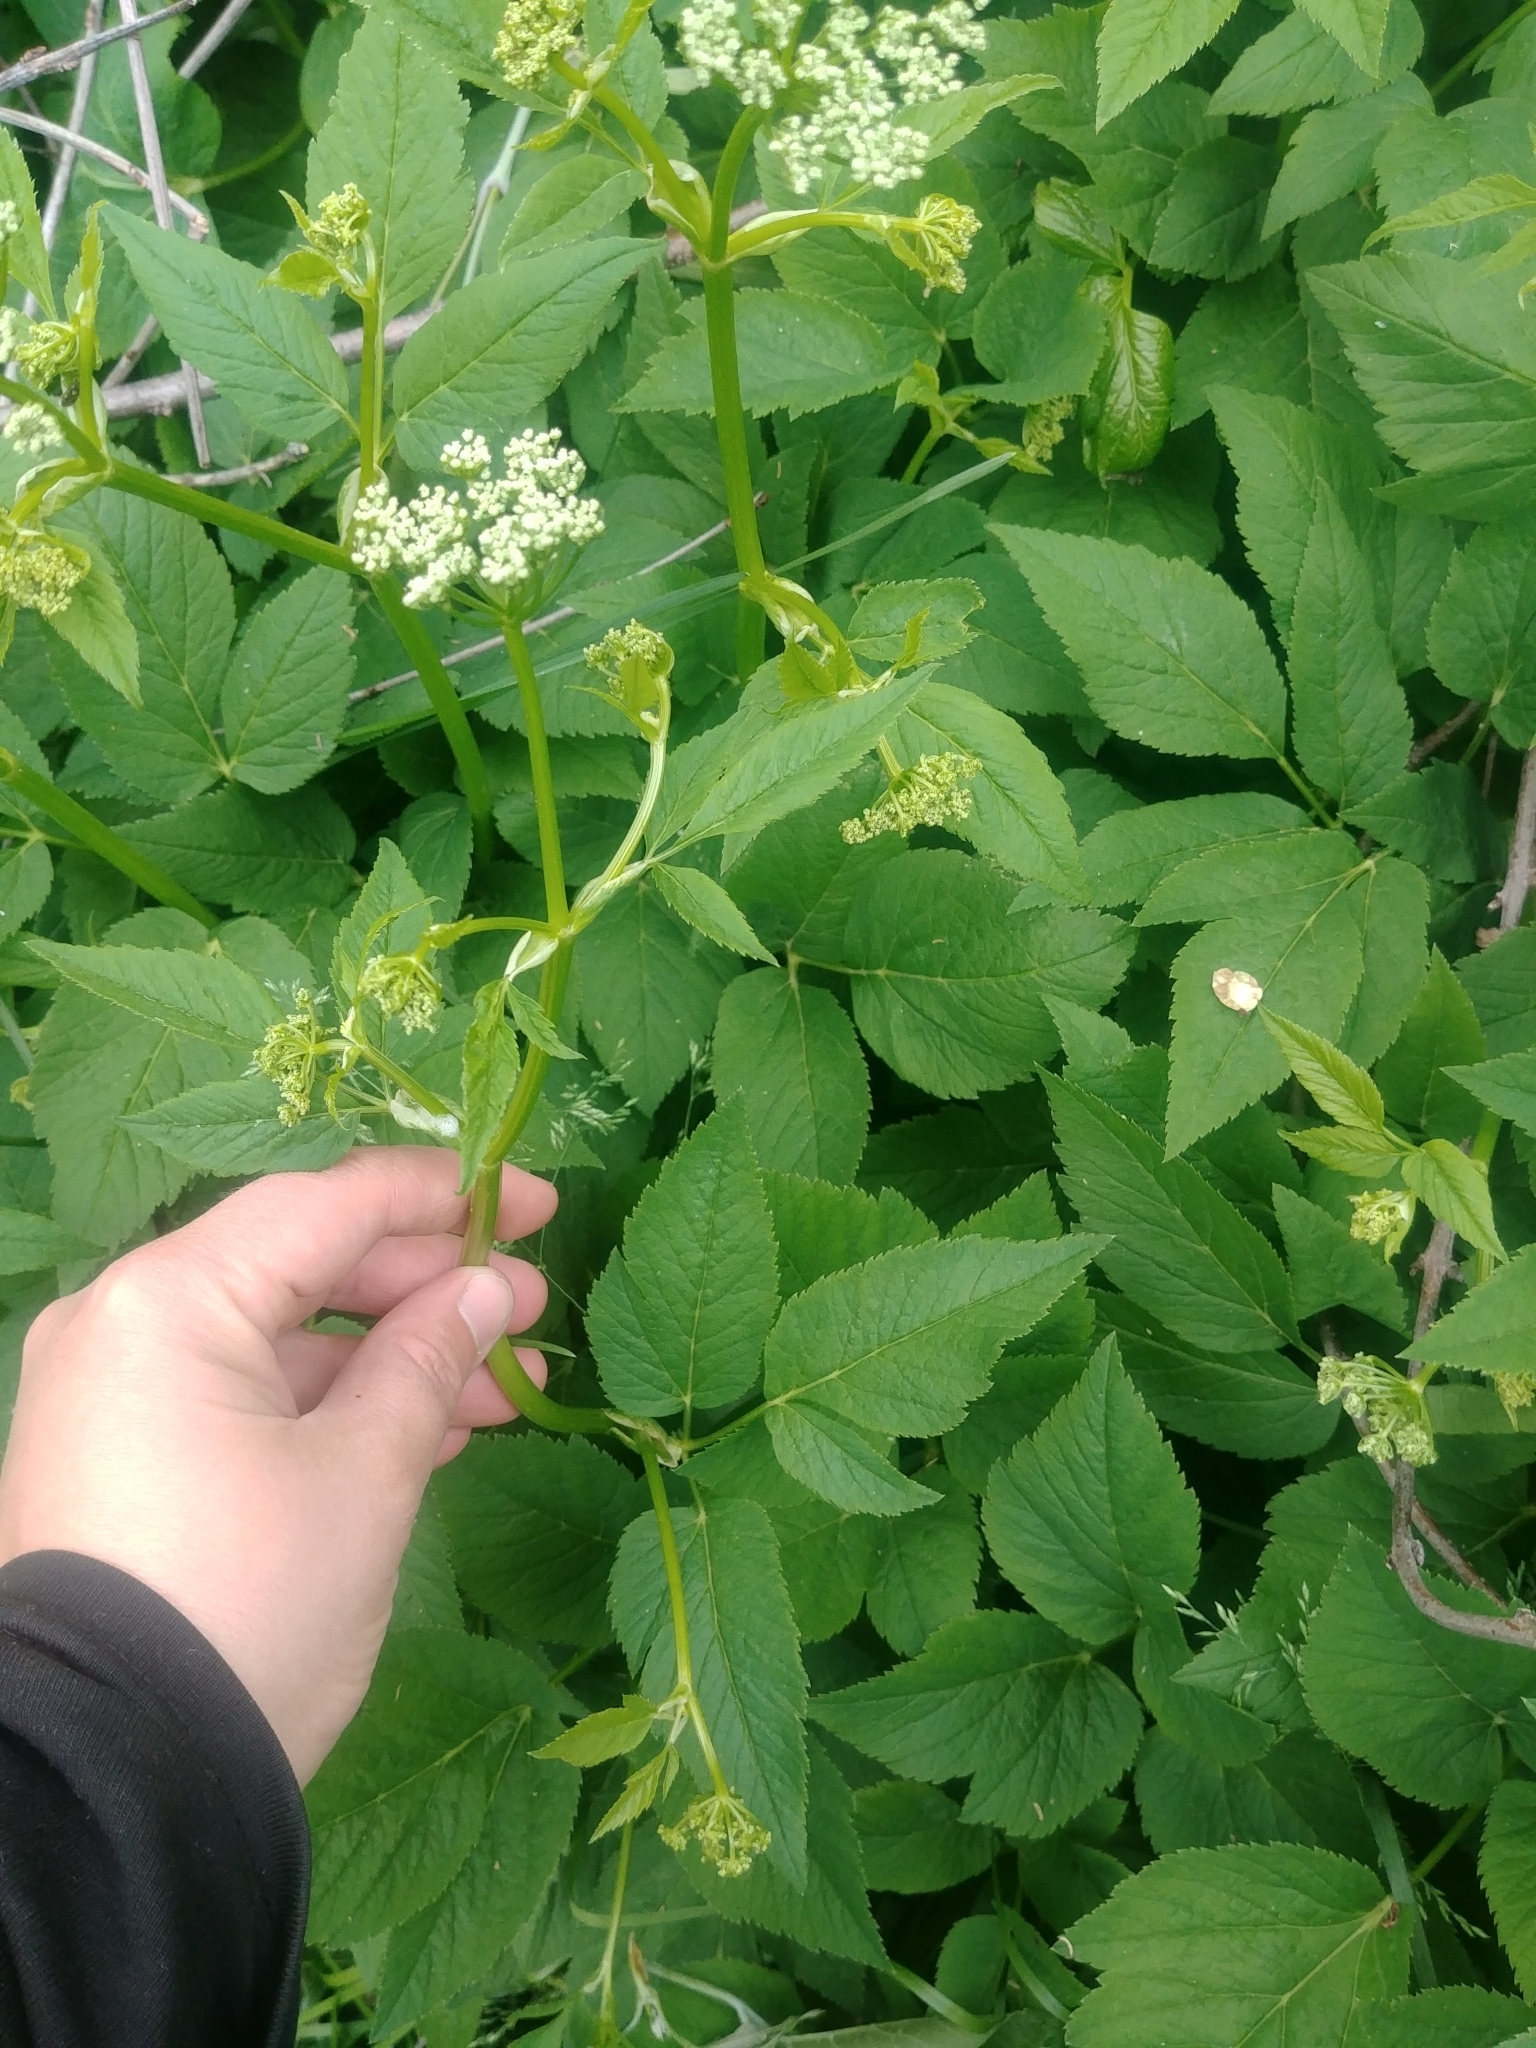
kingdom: Plantae
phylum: Tracheophyta
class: Magnoliopsida
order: Apiales
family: Apiaceae
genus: Aegopodium
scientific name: Aegopodium podagraria
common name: Ground-elder
